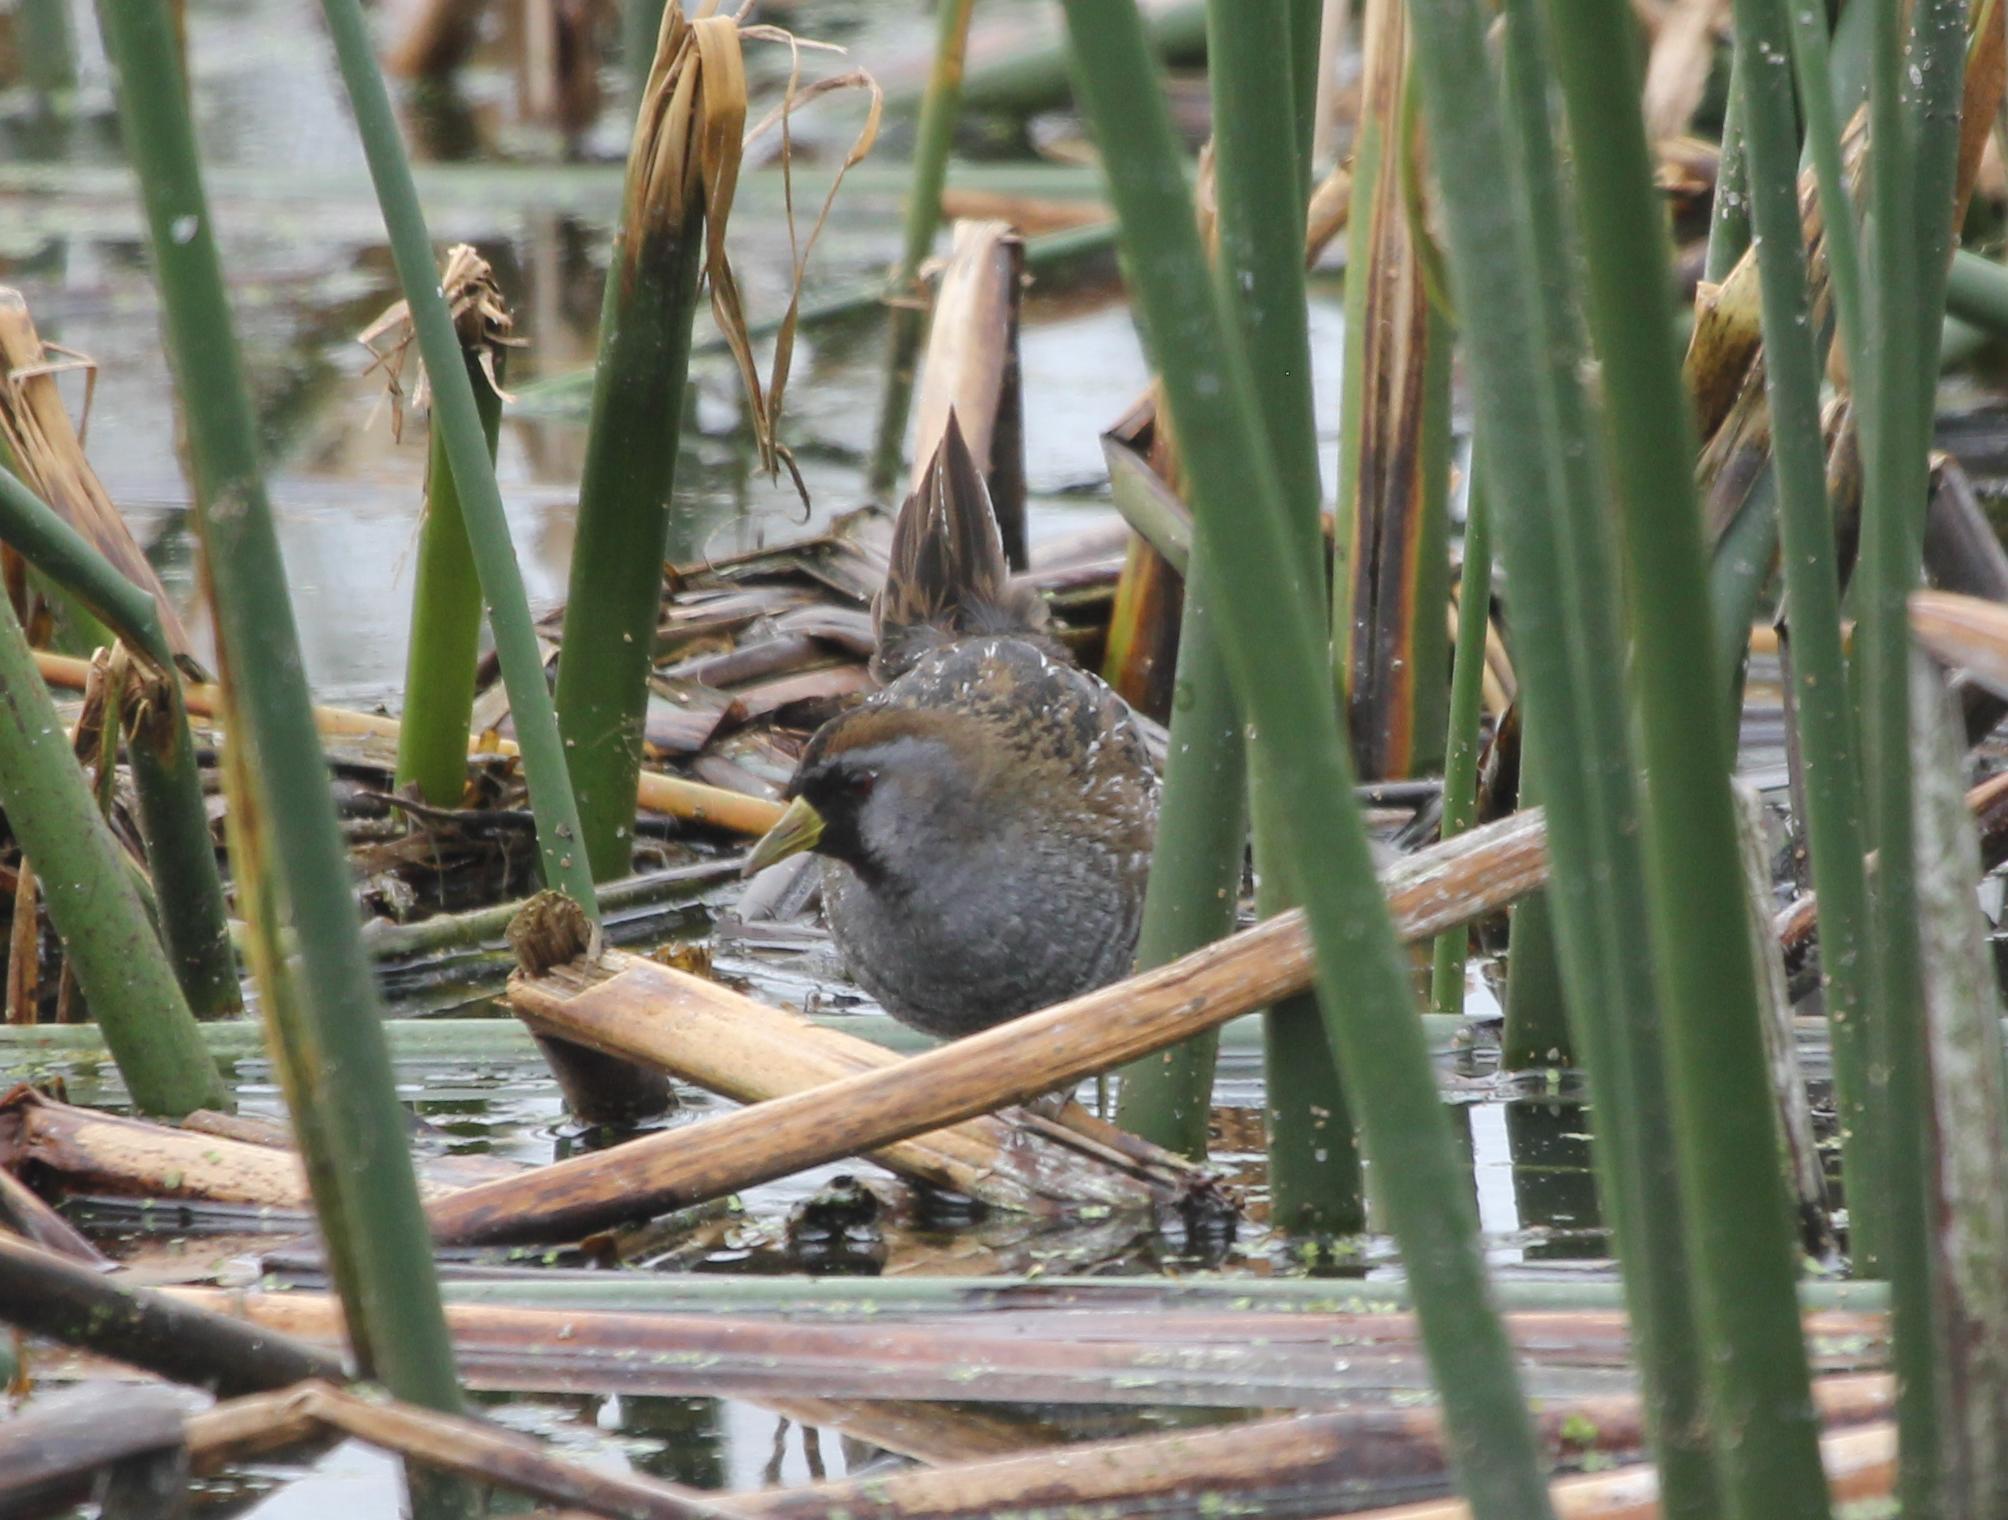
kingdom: Animalia
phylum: Chordata
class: Aves
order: Gruiformes
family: Rallidae
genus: Porzana
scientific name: Porzana carolina
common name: Sora
